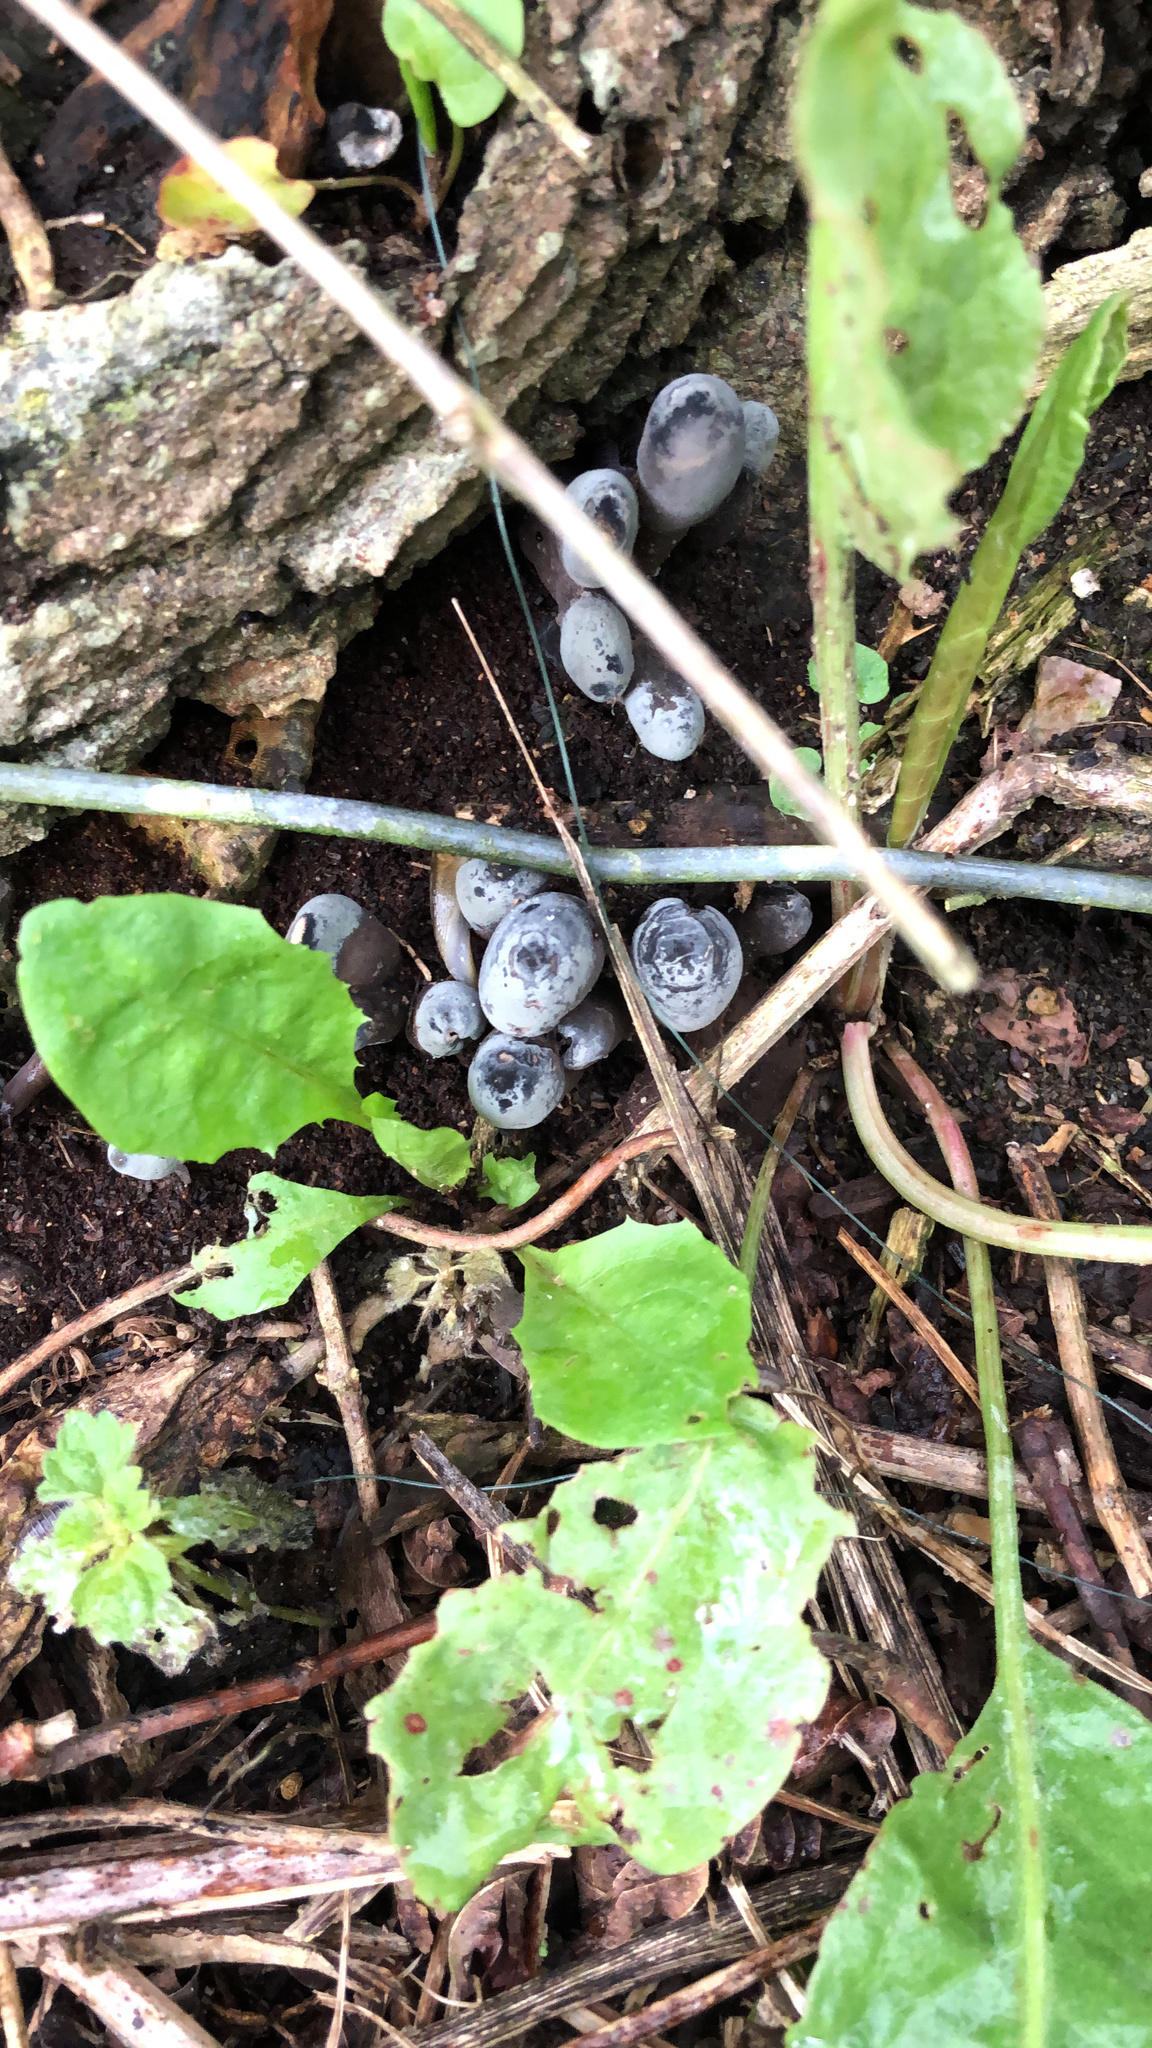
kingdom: Fungi
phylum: Ascomycota
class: Sordariomycetes
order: Xylariales
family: Xylariaceae
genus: Xylaria
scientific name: Xylaria polymorpha
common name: Dead man's fingers
